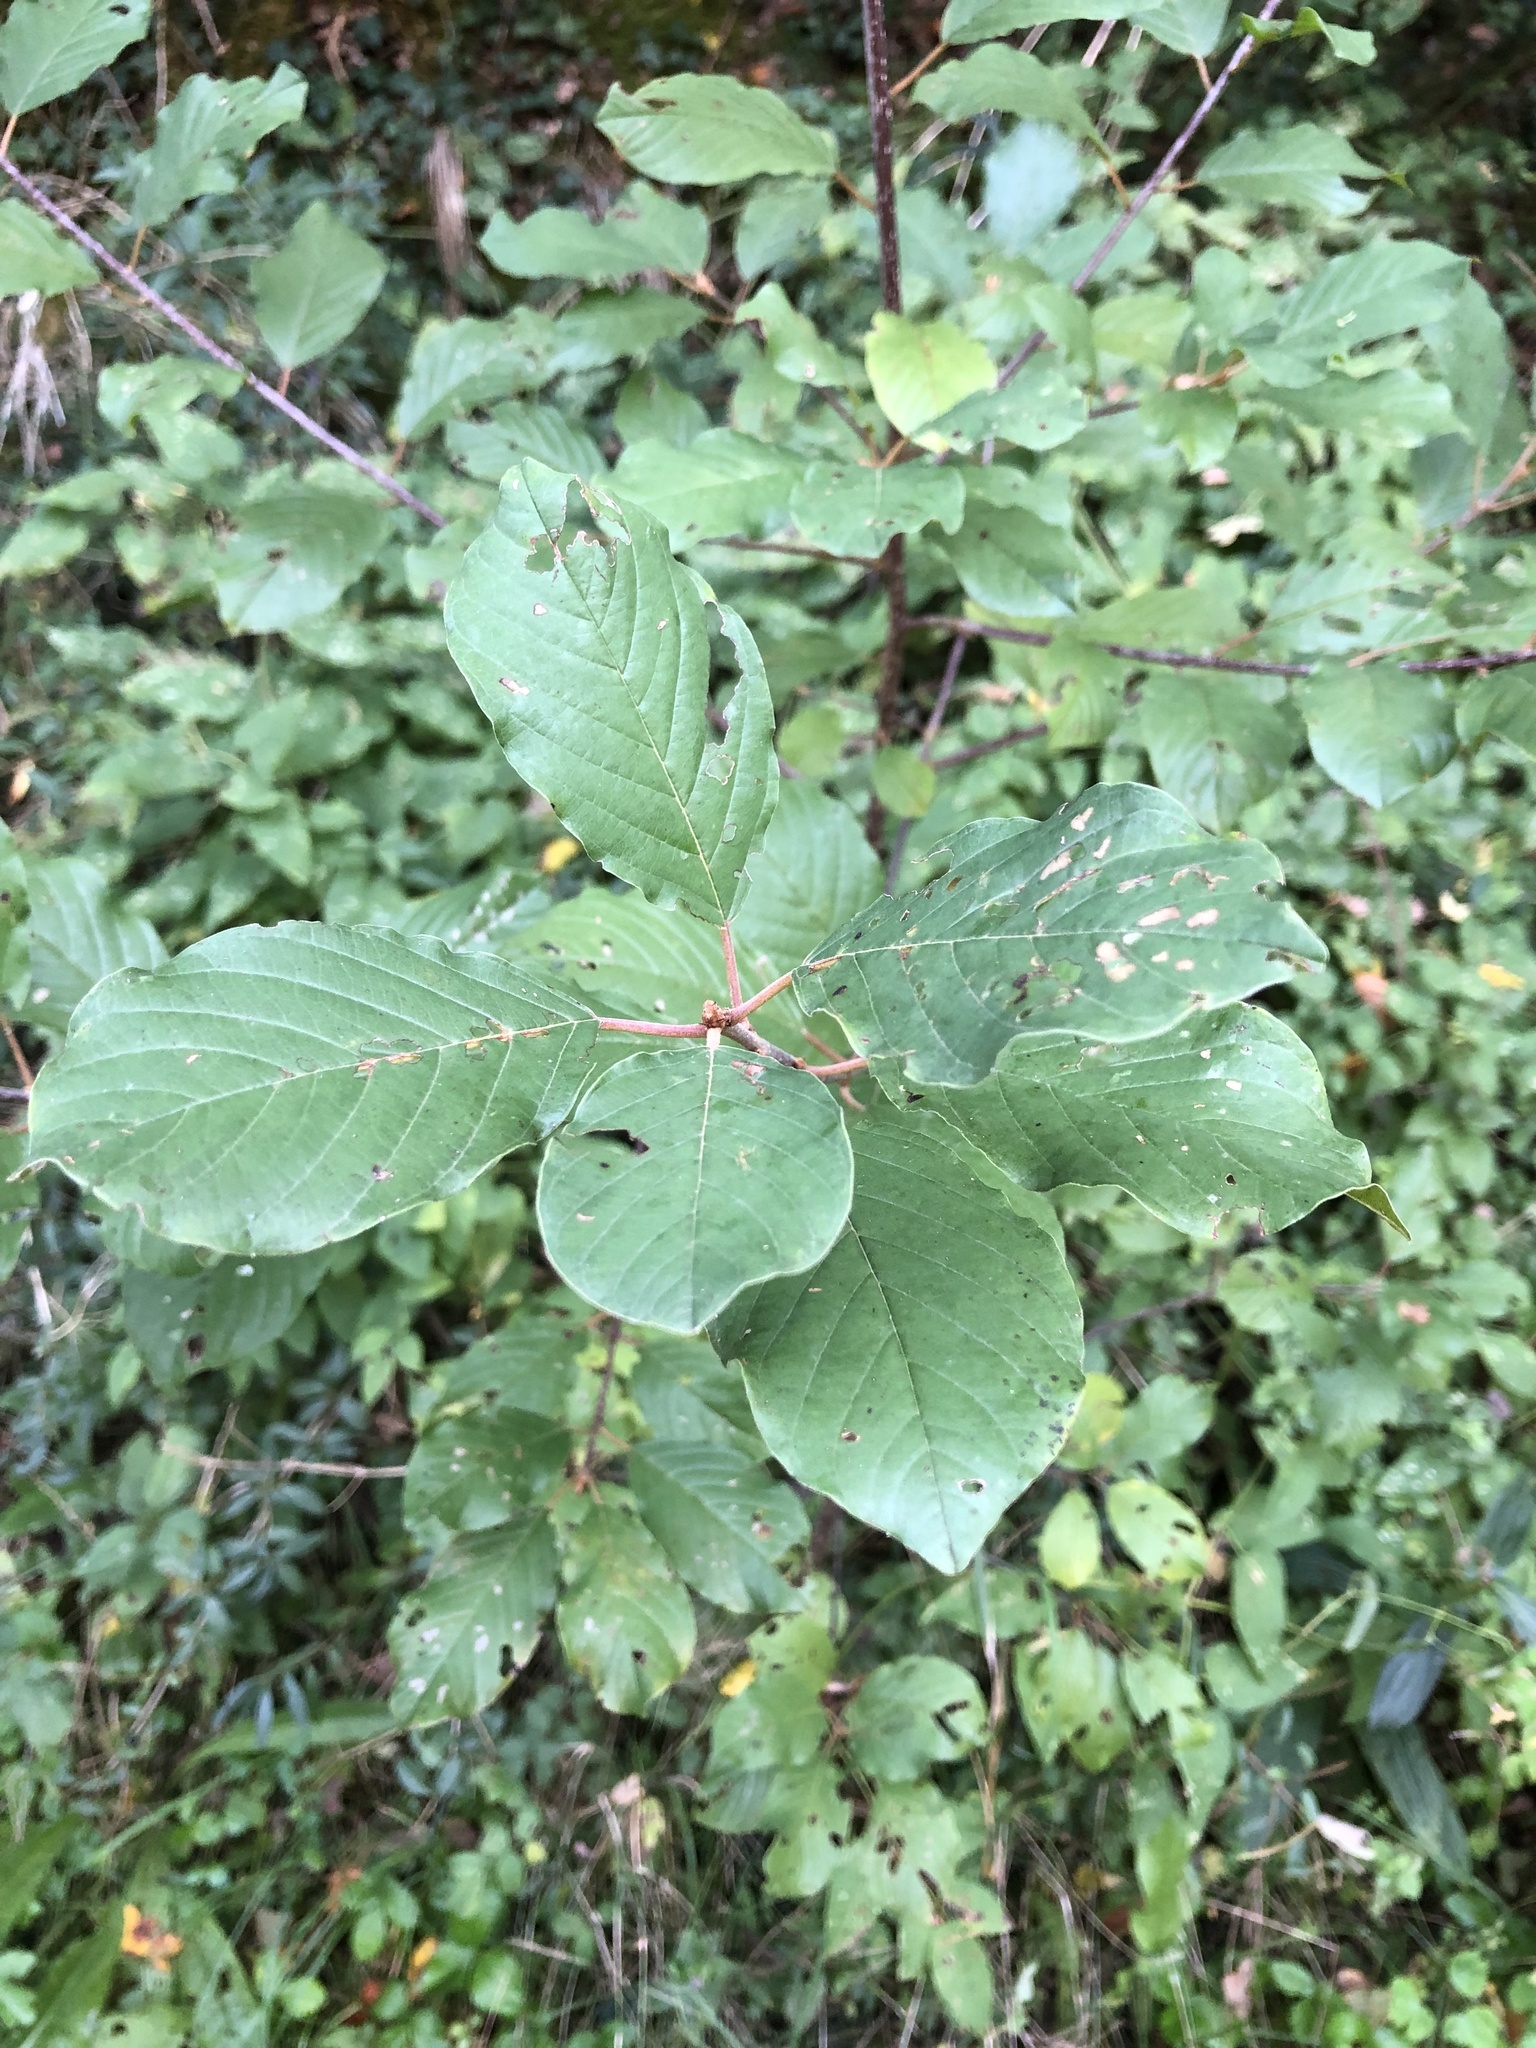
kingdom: Plantae
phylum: Tracheophyta
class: Magnoliopsida
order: Rosales
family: Rhamnaceae
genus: Frangula
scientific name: Frangula alnus
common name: Alder buckthorn
